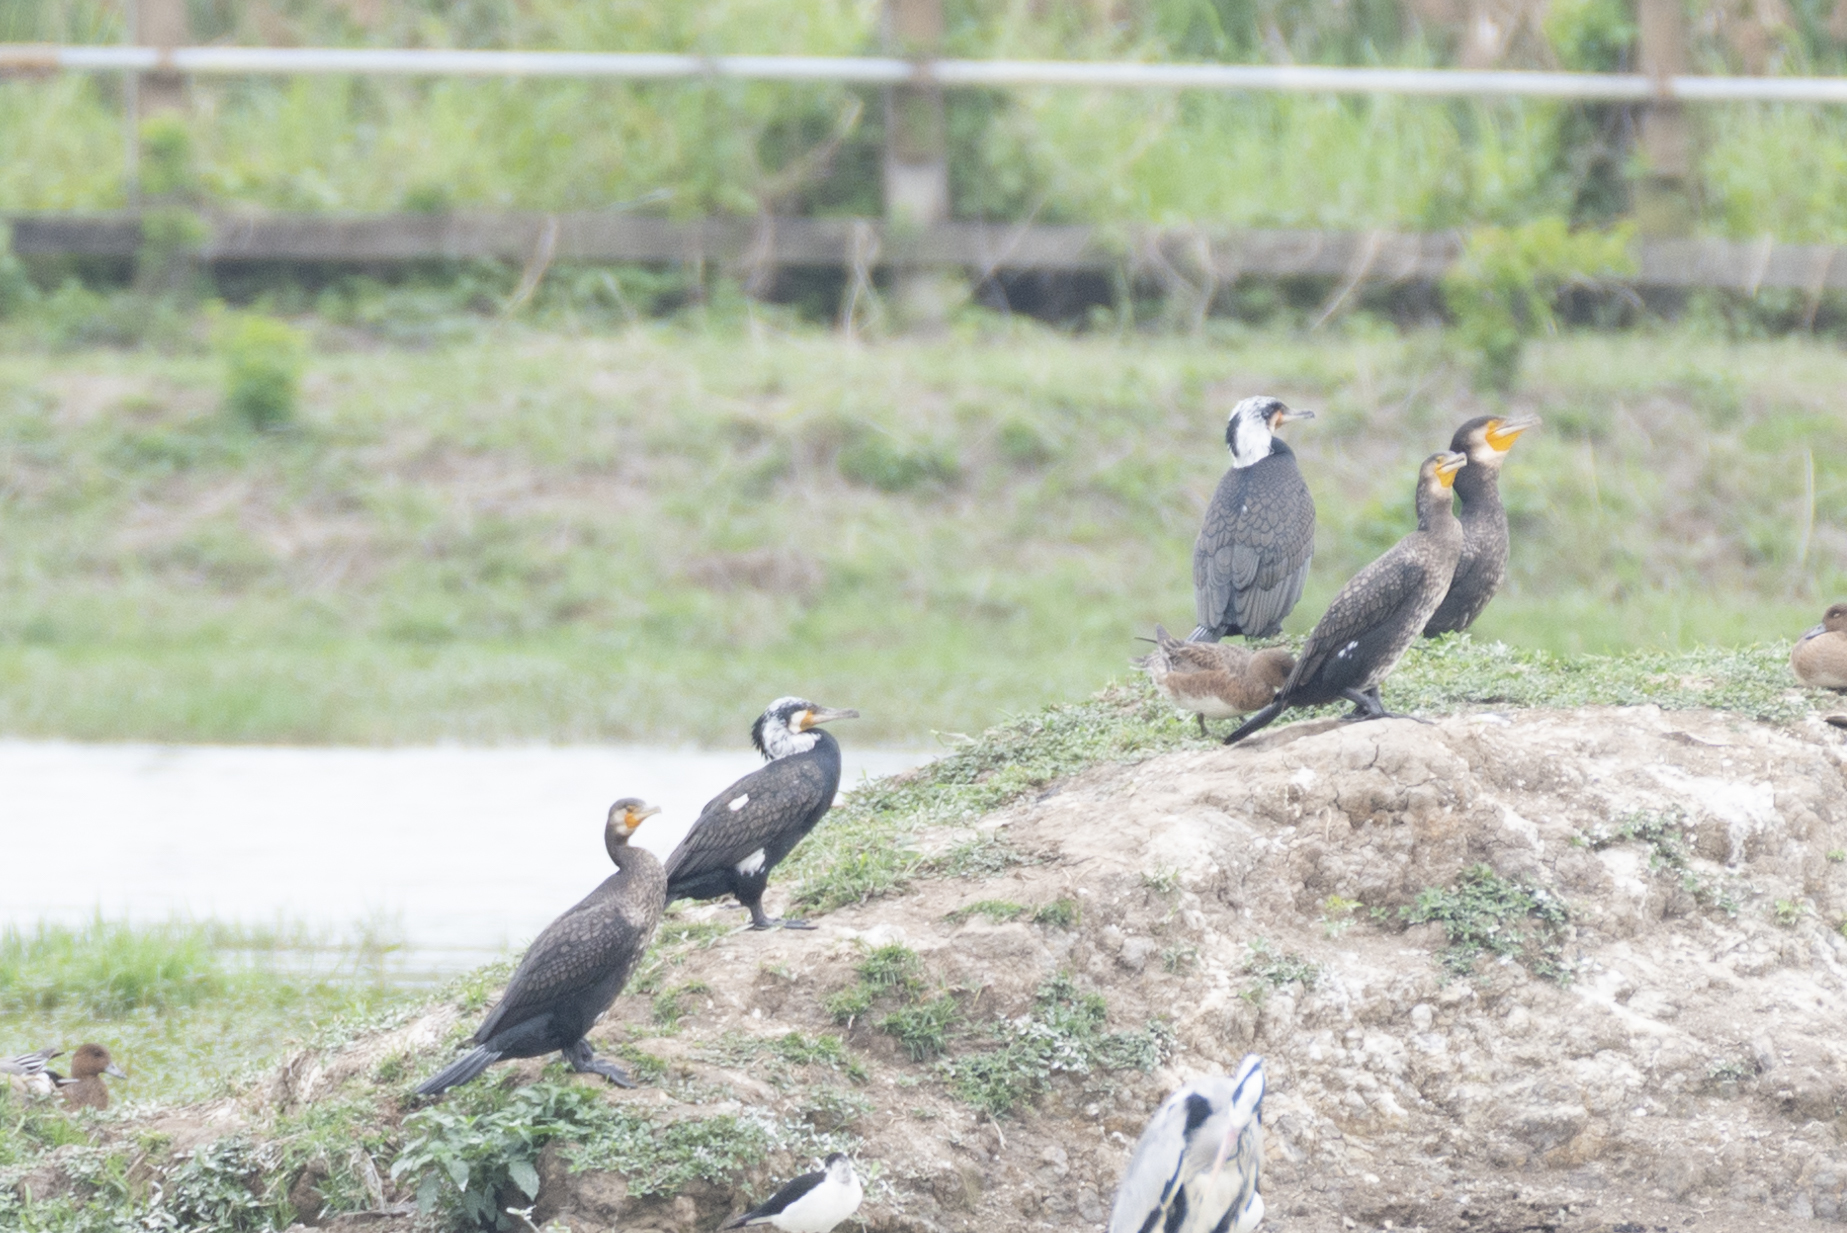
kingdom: Animalia
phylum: Chordata
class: Aves
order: Suliformes
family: Phalacrocoracidae
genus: Phalacrocorax
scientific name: Phalacrocorax carbo
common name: Great cormorant
